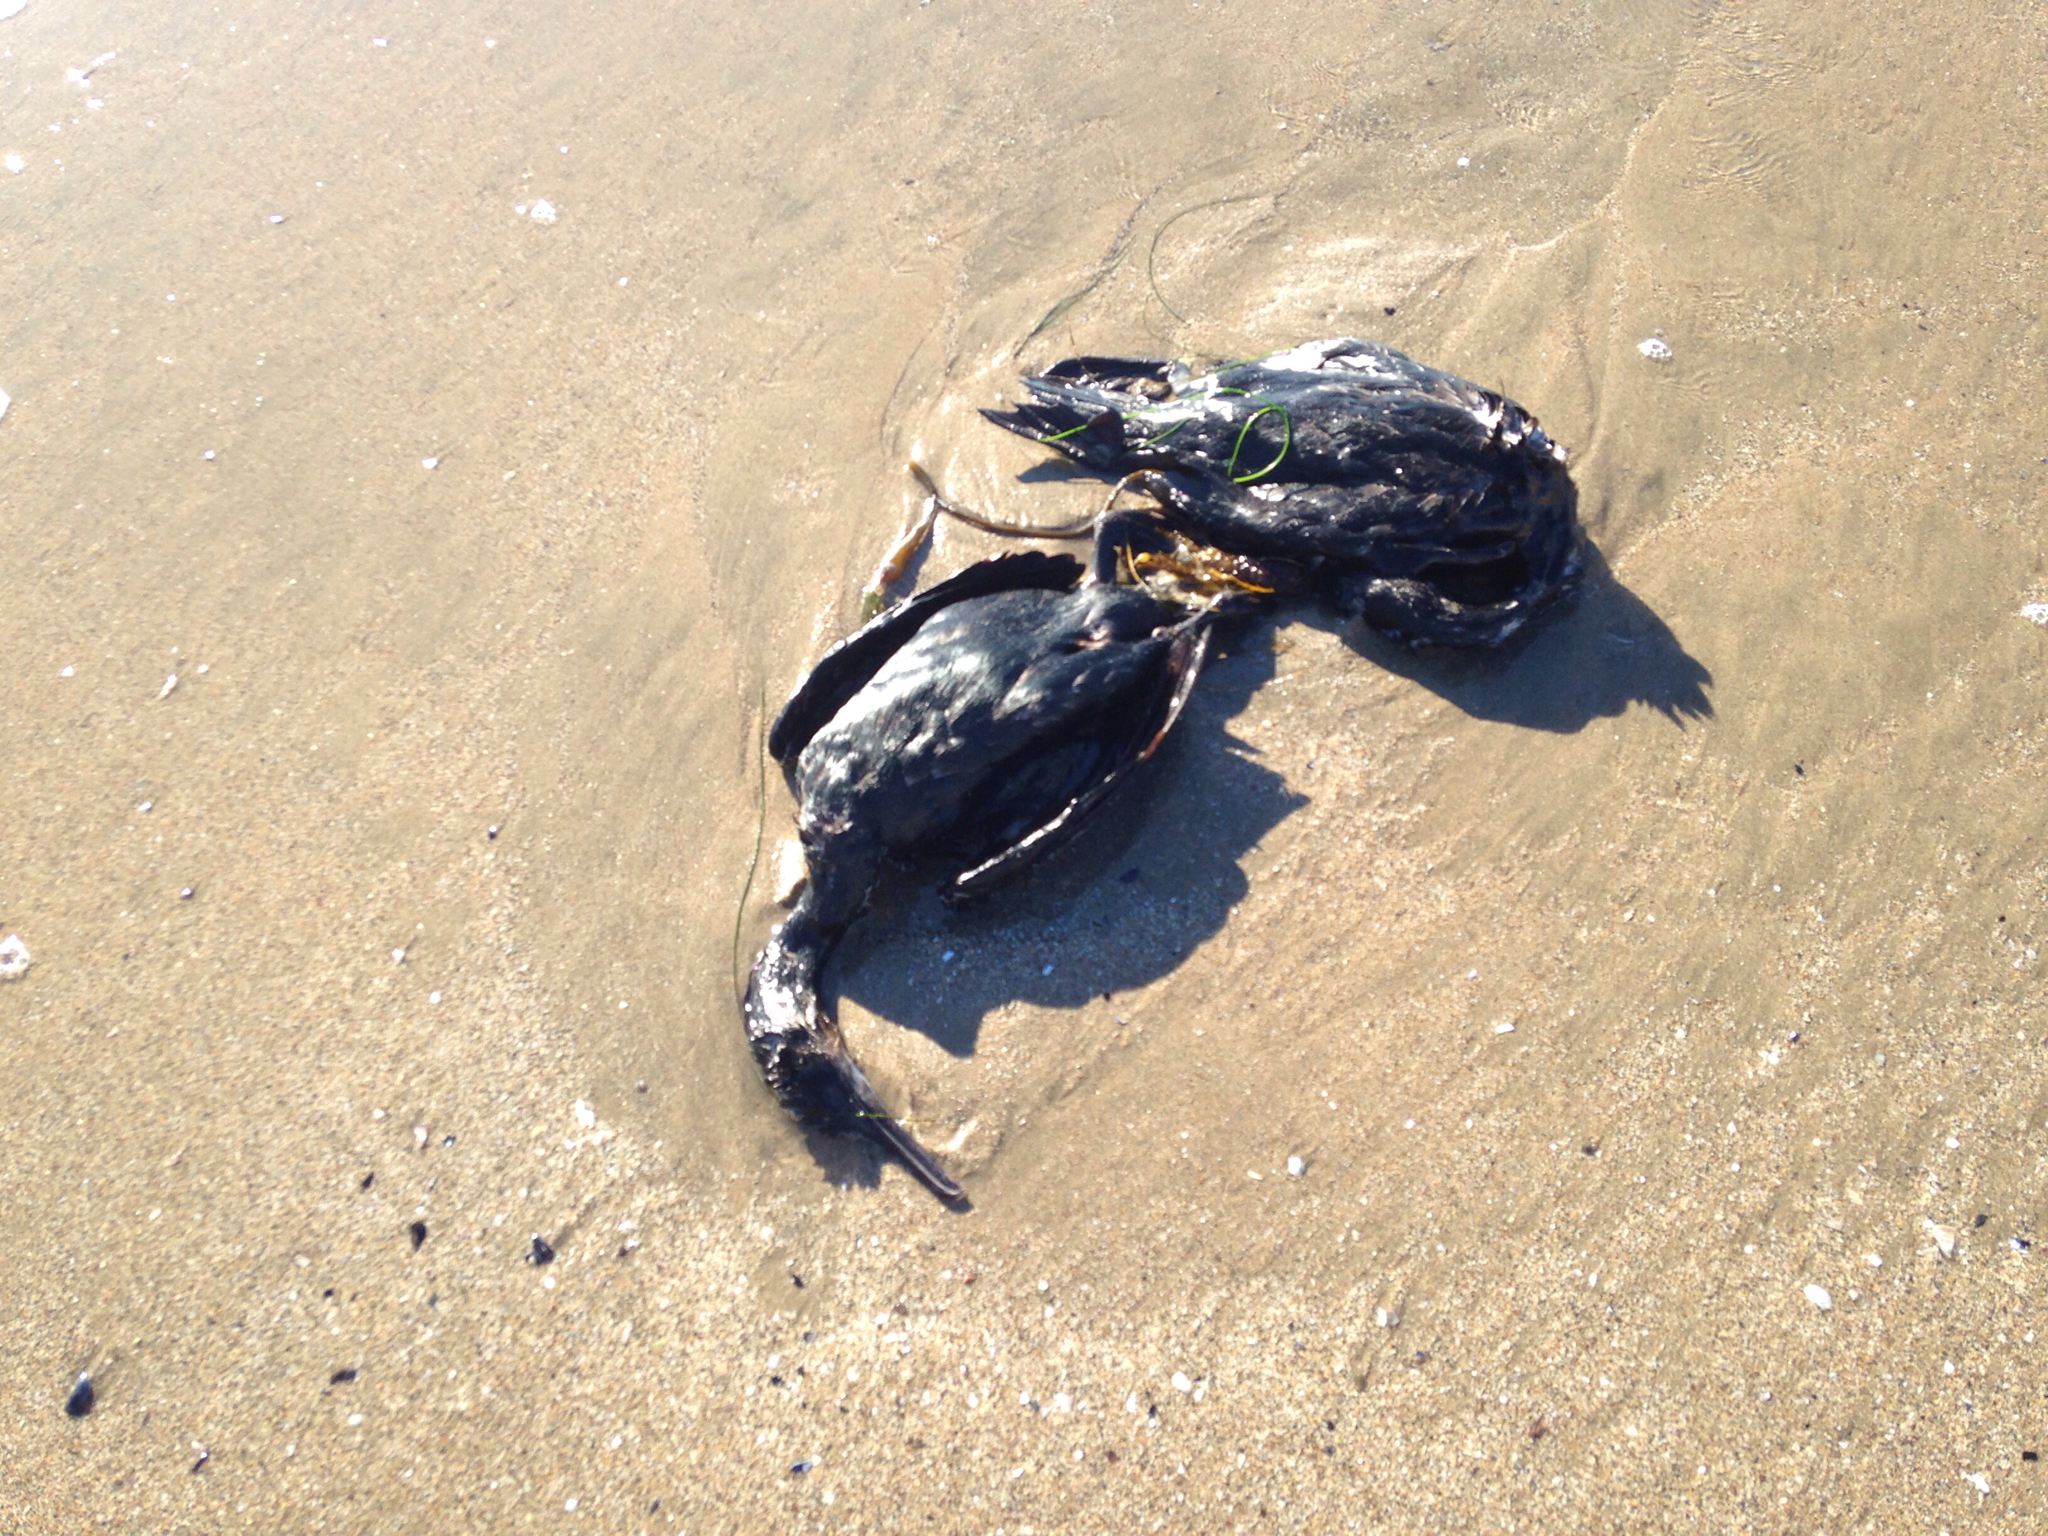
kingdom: Animalia
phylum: Chordata
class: Aves
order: Suliformes
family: Phalacrocoracidae
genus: Urile
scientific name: Urile penicillatus
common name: Brandt's cormorant
